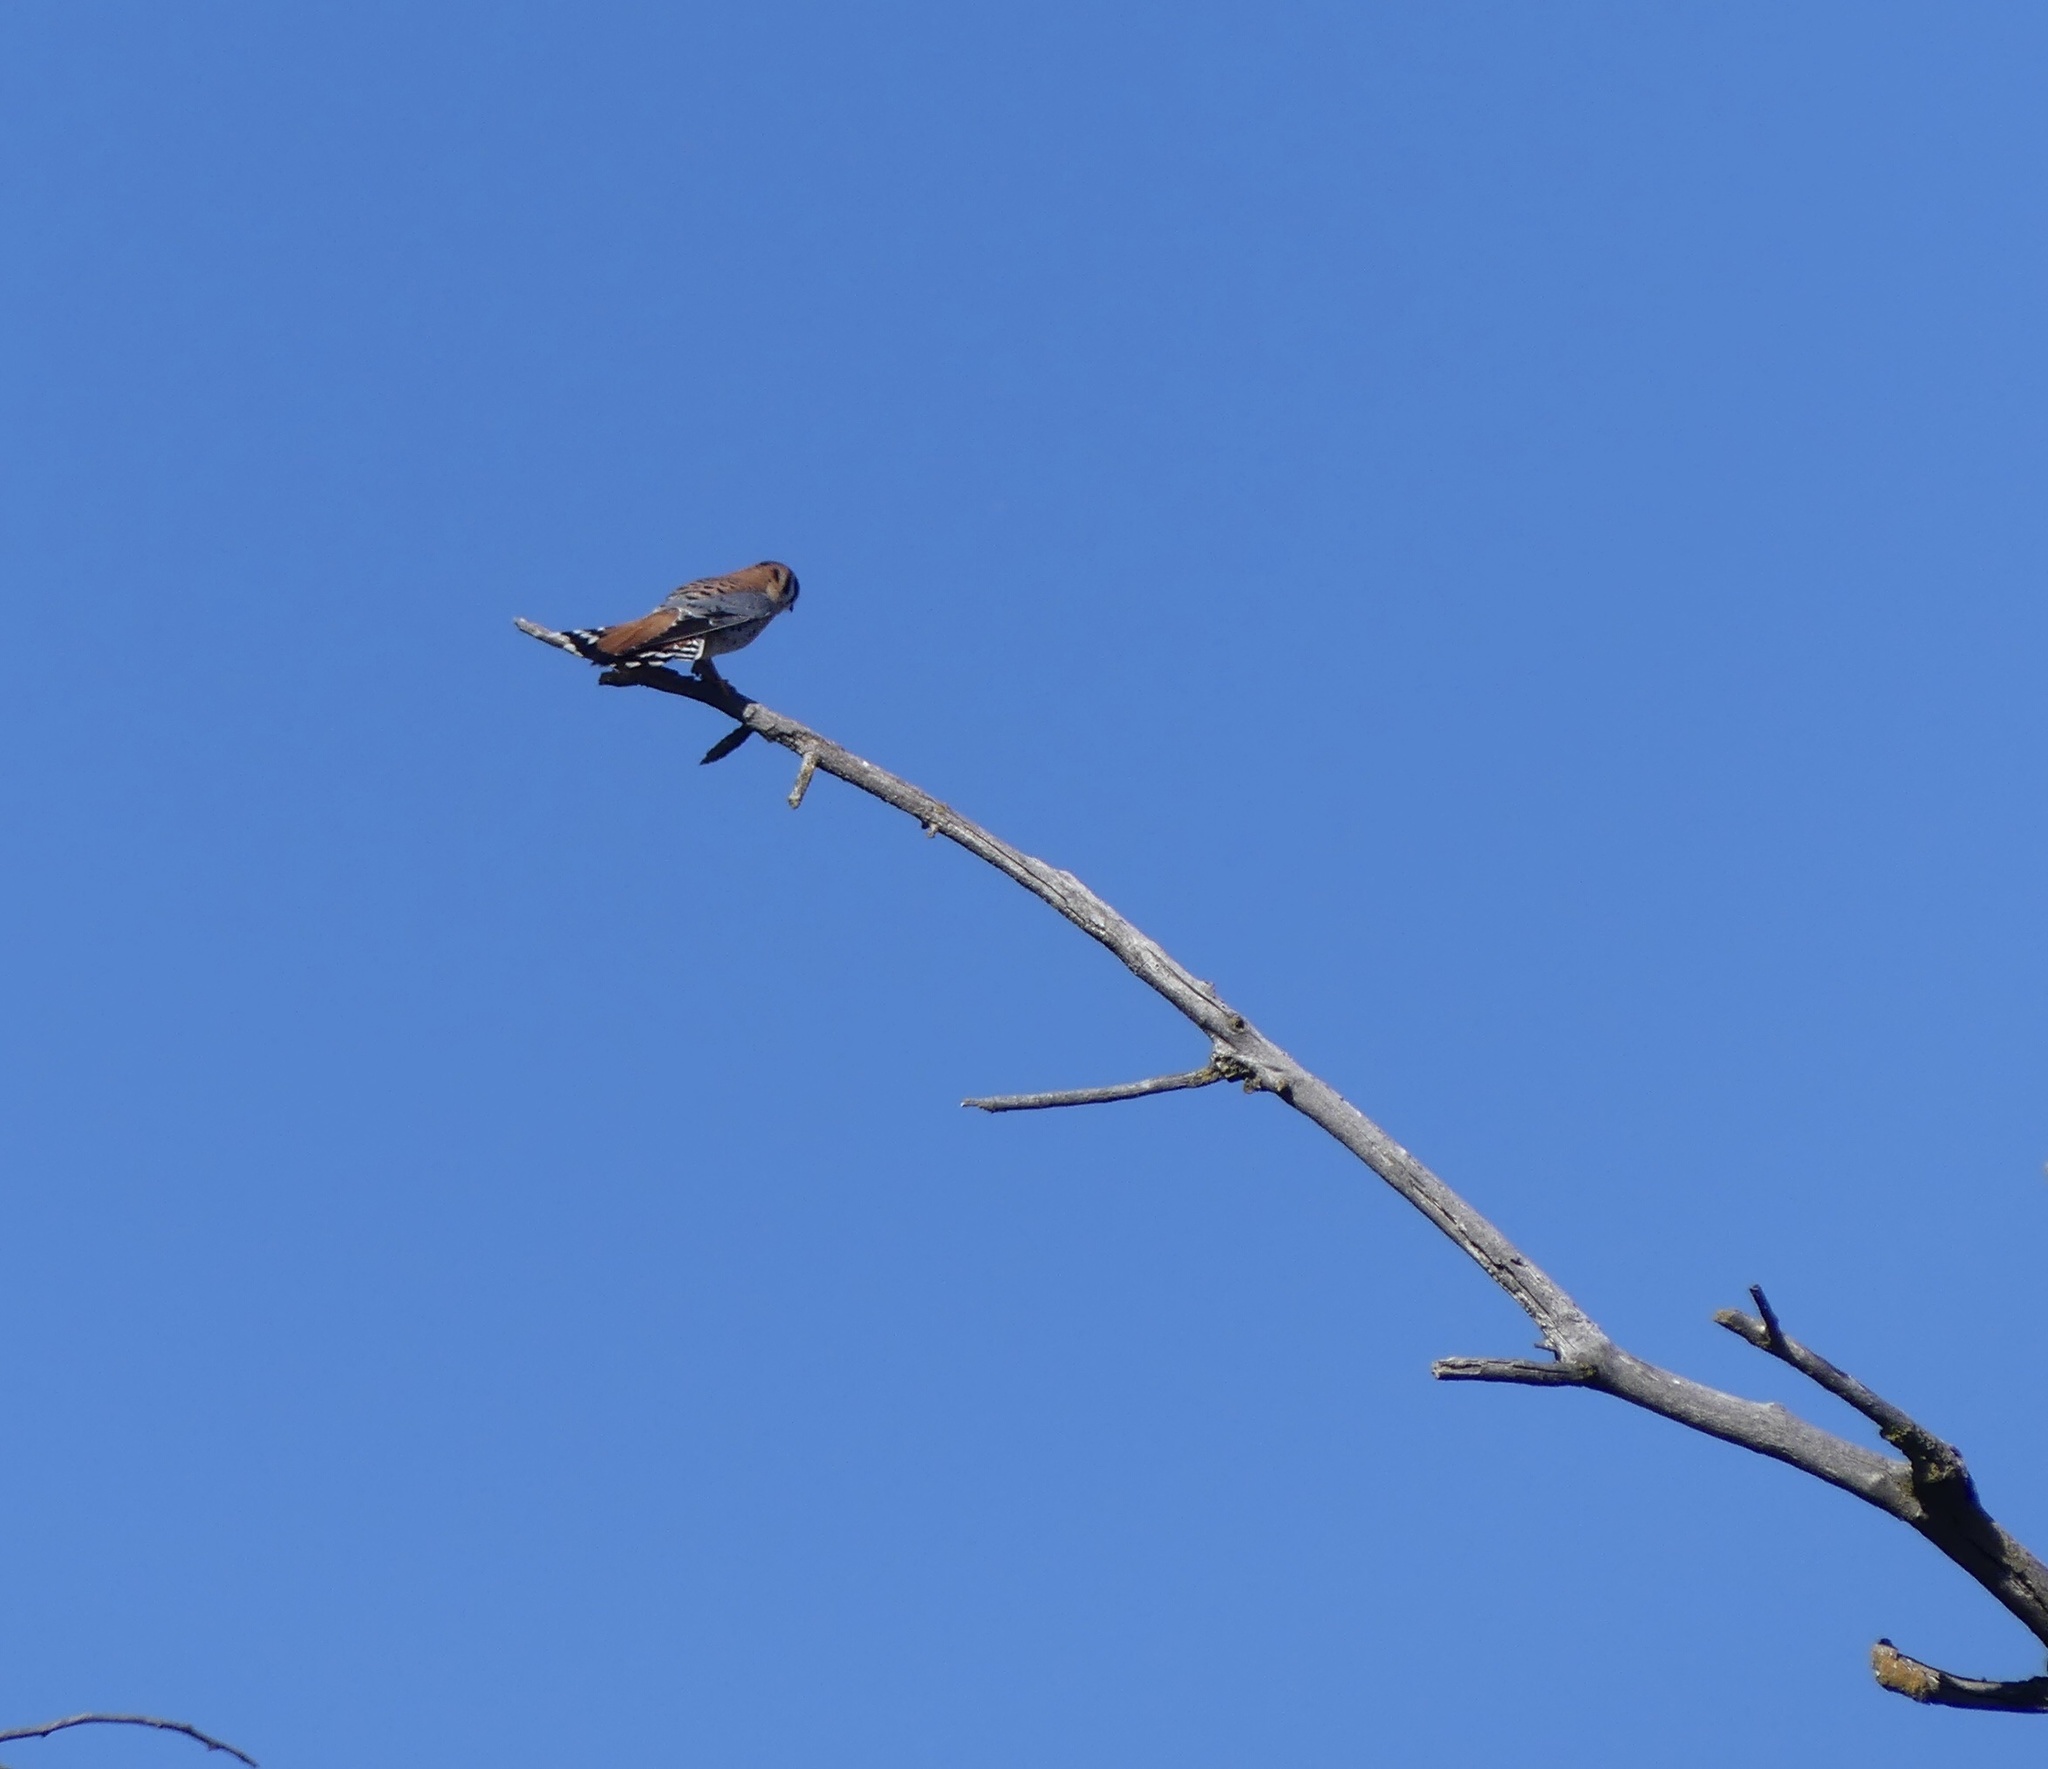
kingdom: Animalia
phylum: Chordata
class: Aves
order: Falconiformes
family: Falconidae
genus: Falco
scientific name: Falco sparverius
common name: American kestrel
